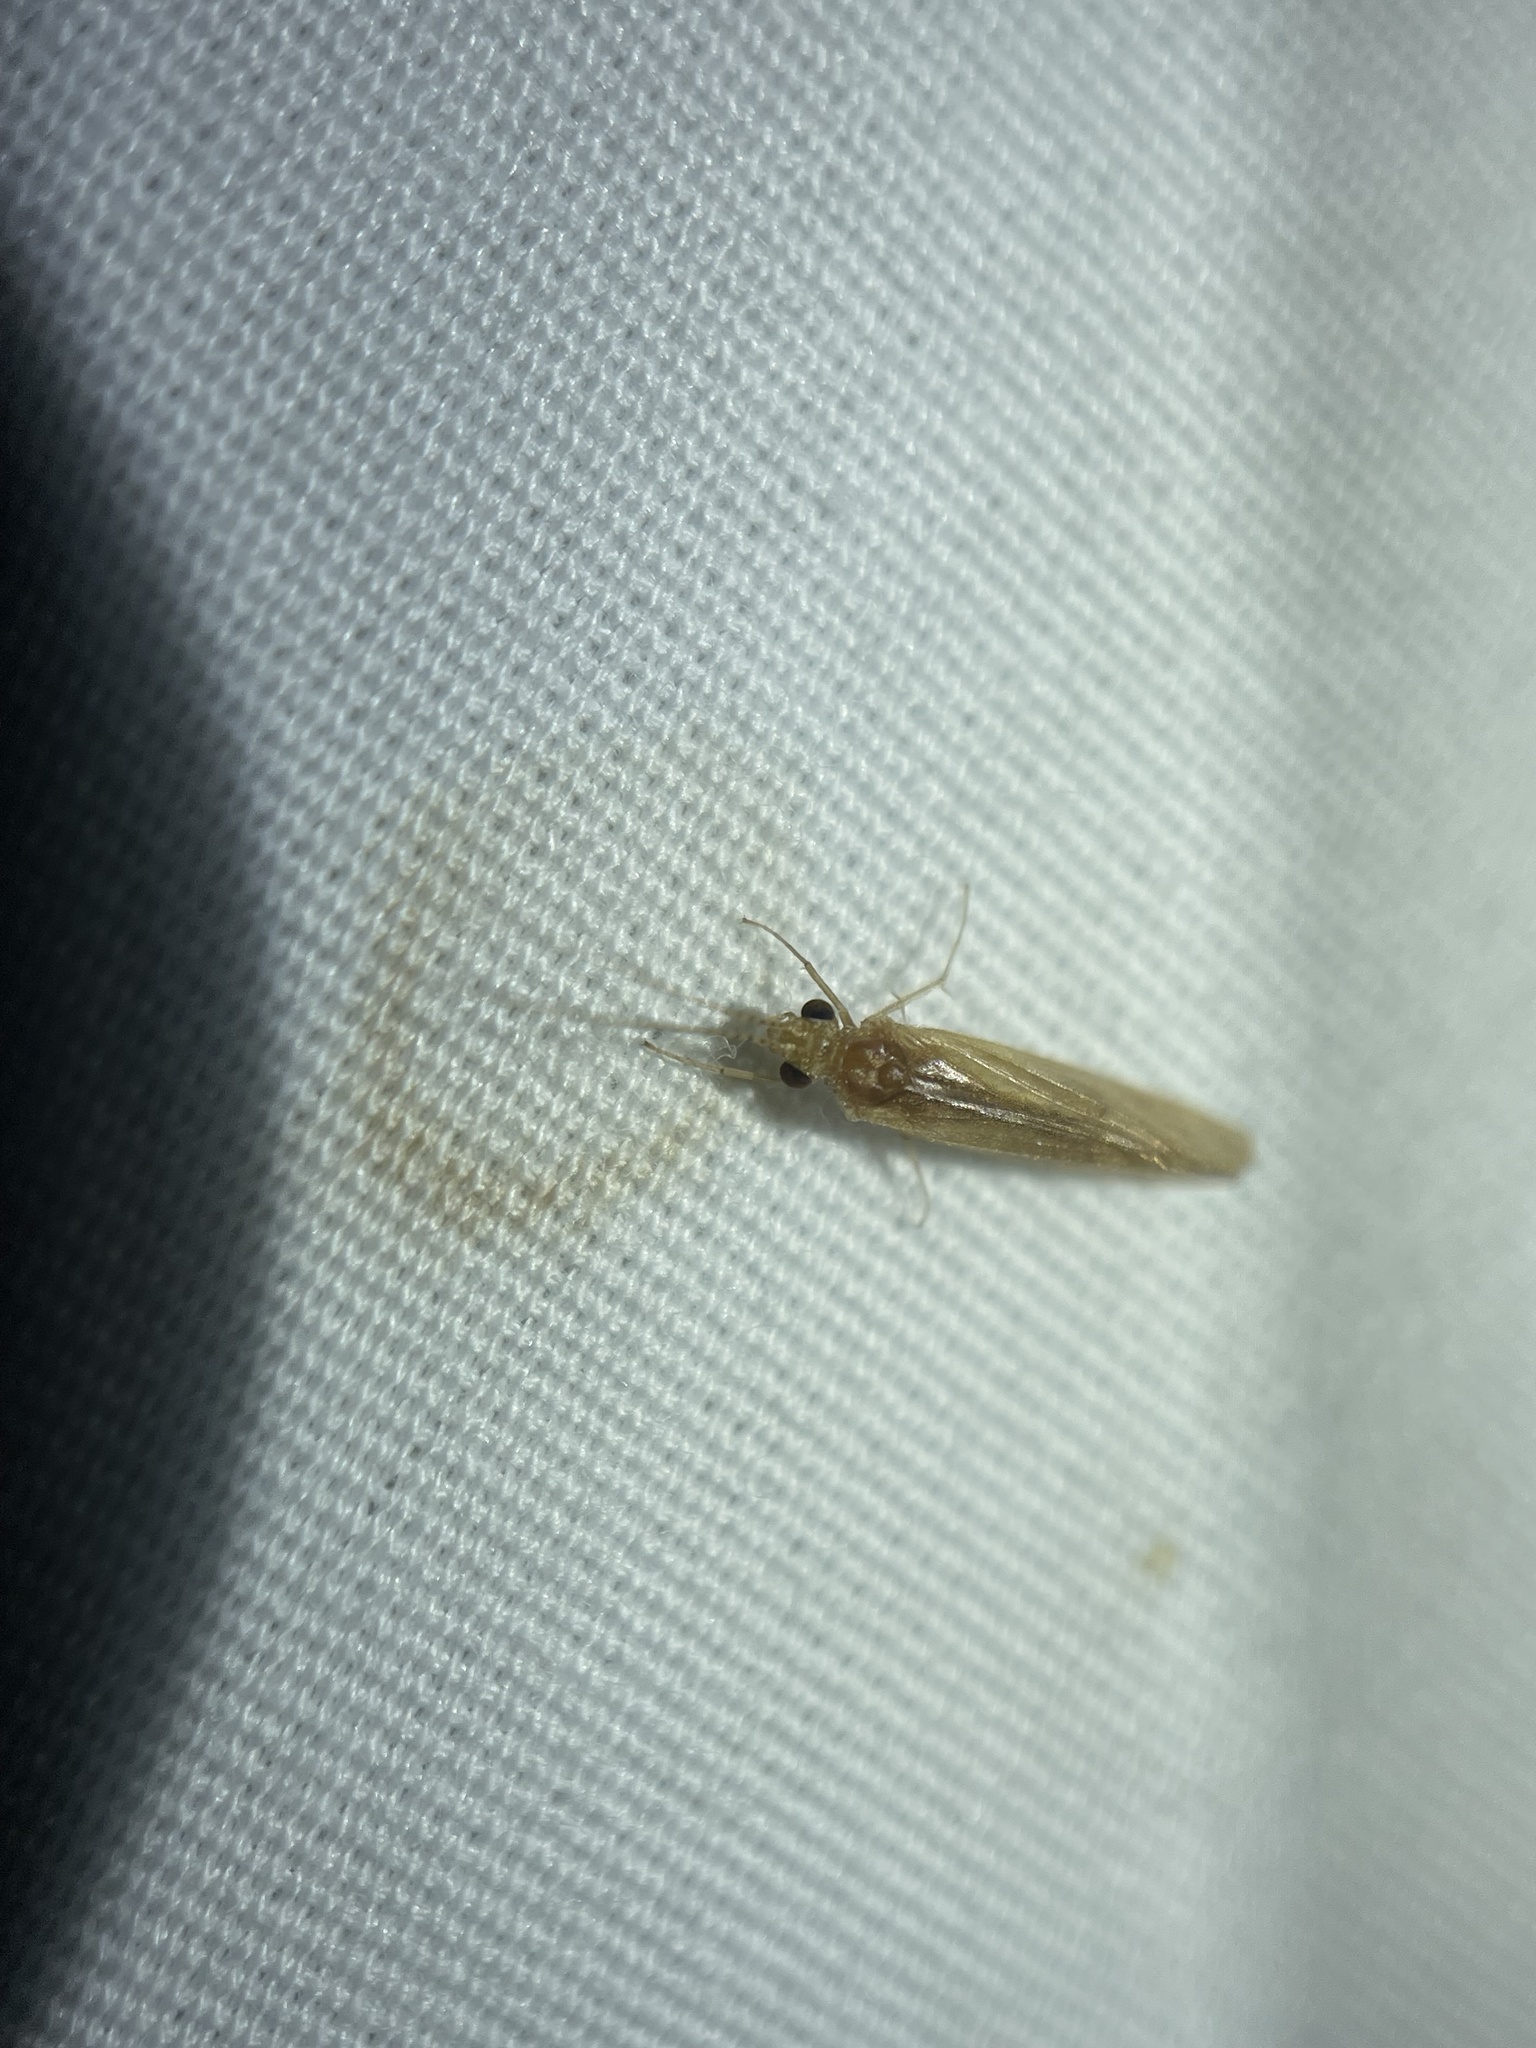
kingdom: Animalia
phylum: Arthropoda
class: Insecta
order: Trichoptera
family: Hydropsychidae
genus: Potamyia
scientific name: Potamyia flava
